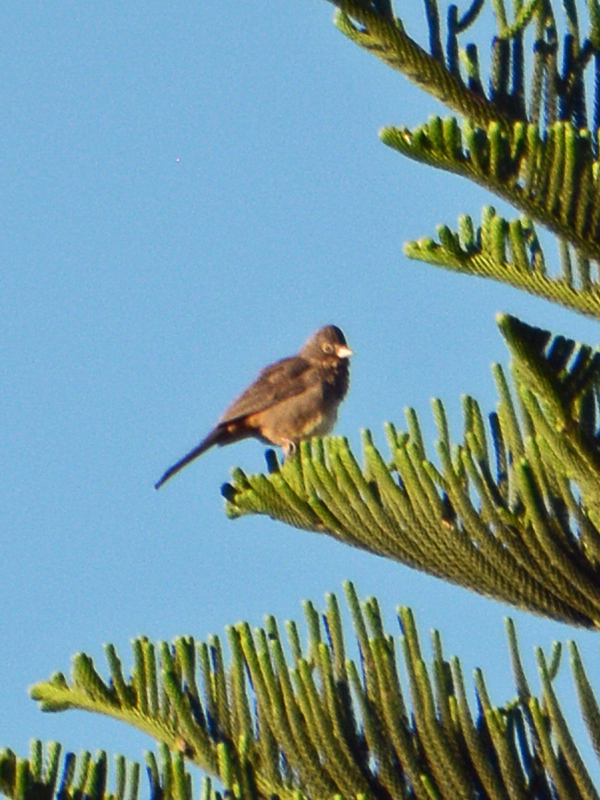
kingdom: Animalia
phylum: Chordata
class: Aves
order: Passeriformes
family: Passerellidae
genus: Melozone
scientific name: Melozone fusca
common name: Canyon towhee
